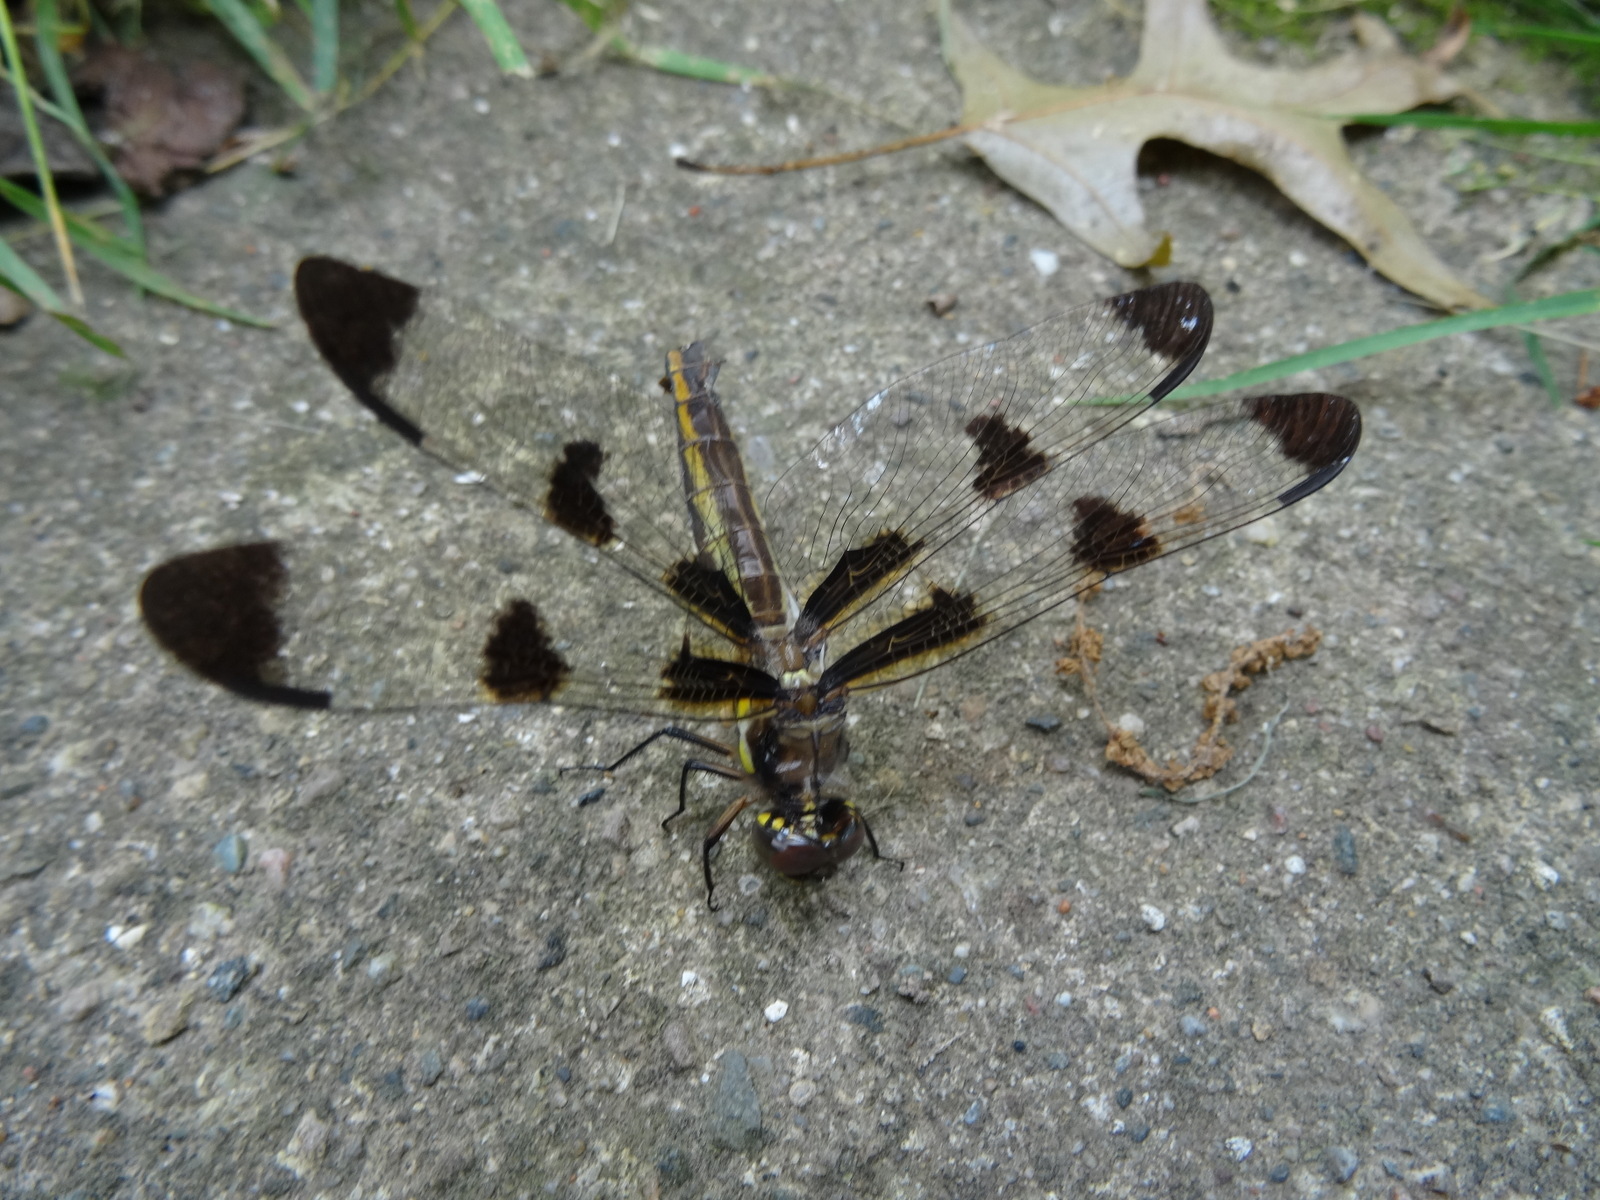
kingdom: Animalia
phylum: Arthropoda
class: Insecta
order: Odonata
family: Libellulidae
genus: Libellula
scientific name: Libellula pulchella
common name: Twelve-spotted skimmer
